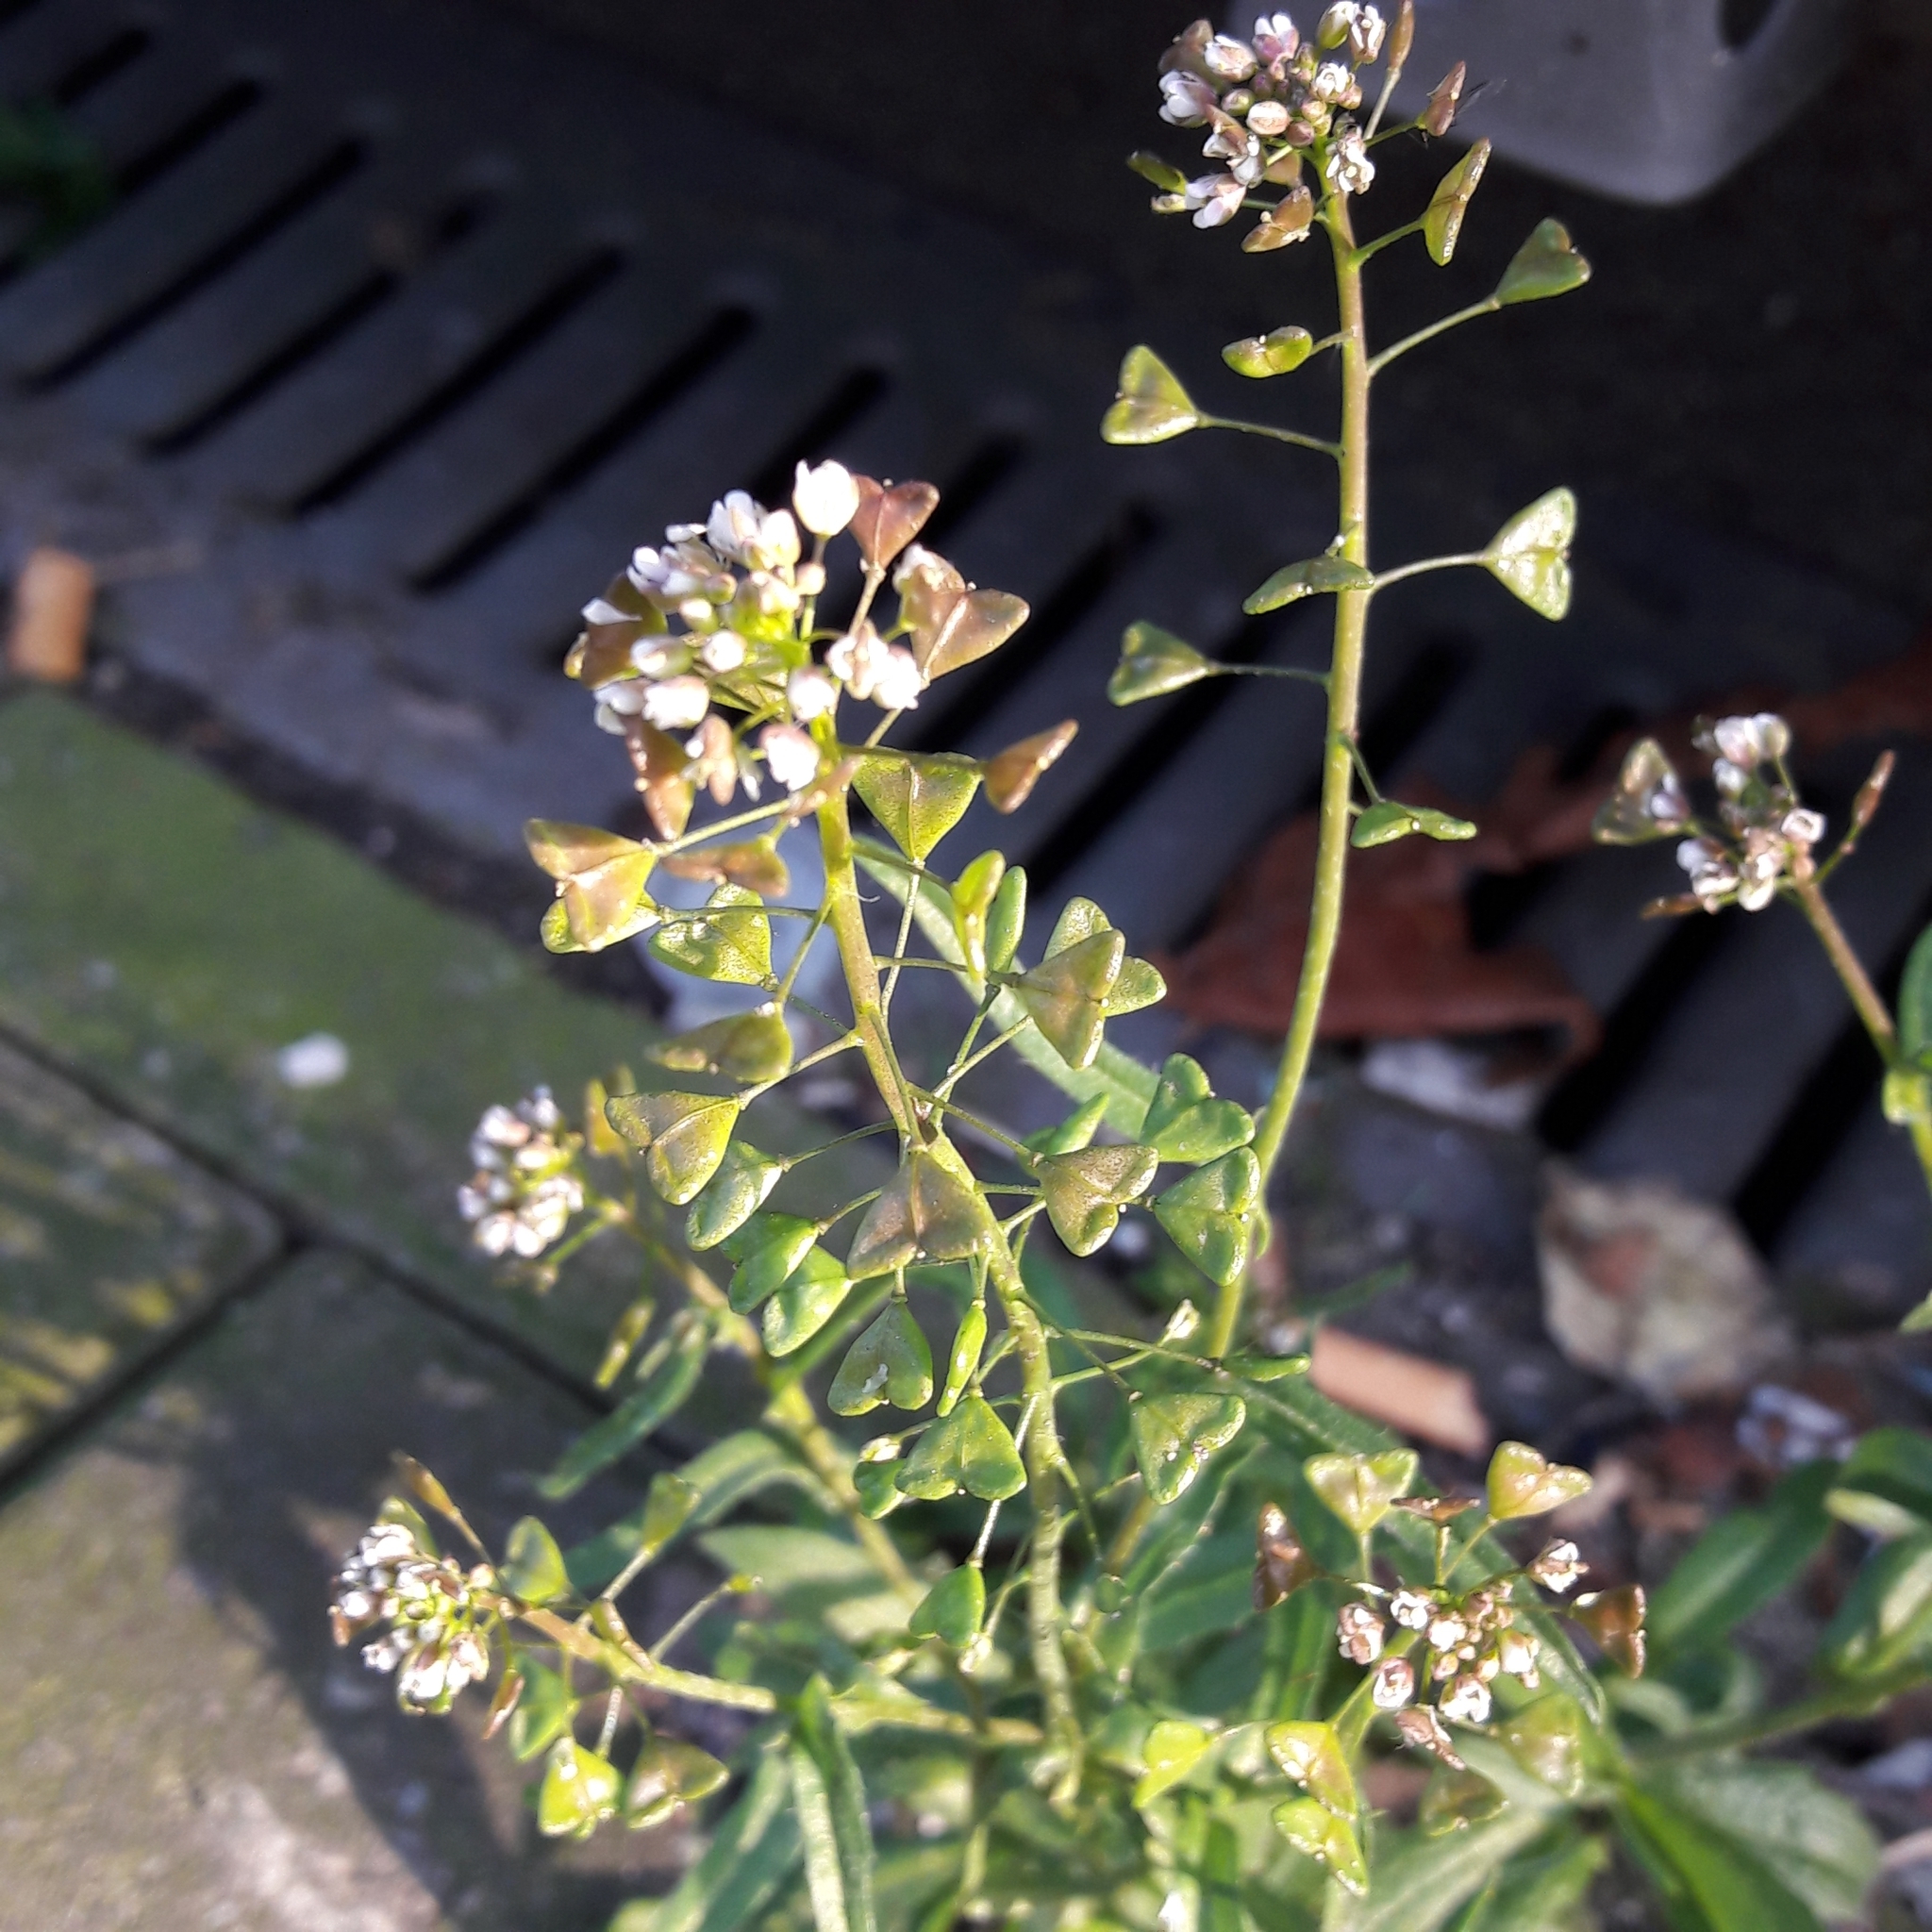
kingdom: Plantae
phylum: Tracheophyta
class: Magnoliopsida
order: Brassicales
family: Brassicaceae
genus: Capsella
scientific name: Capsella bursa-pastoris
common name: Shepherd's purse
